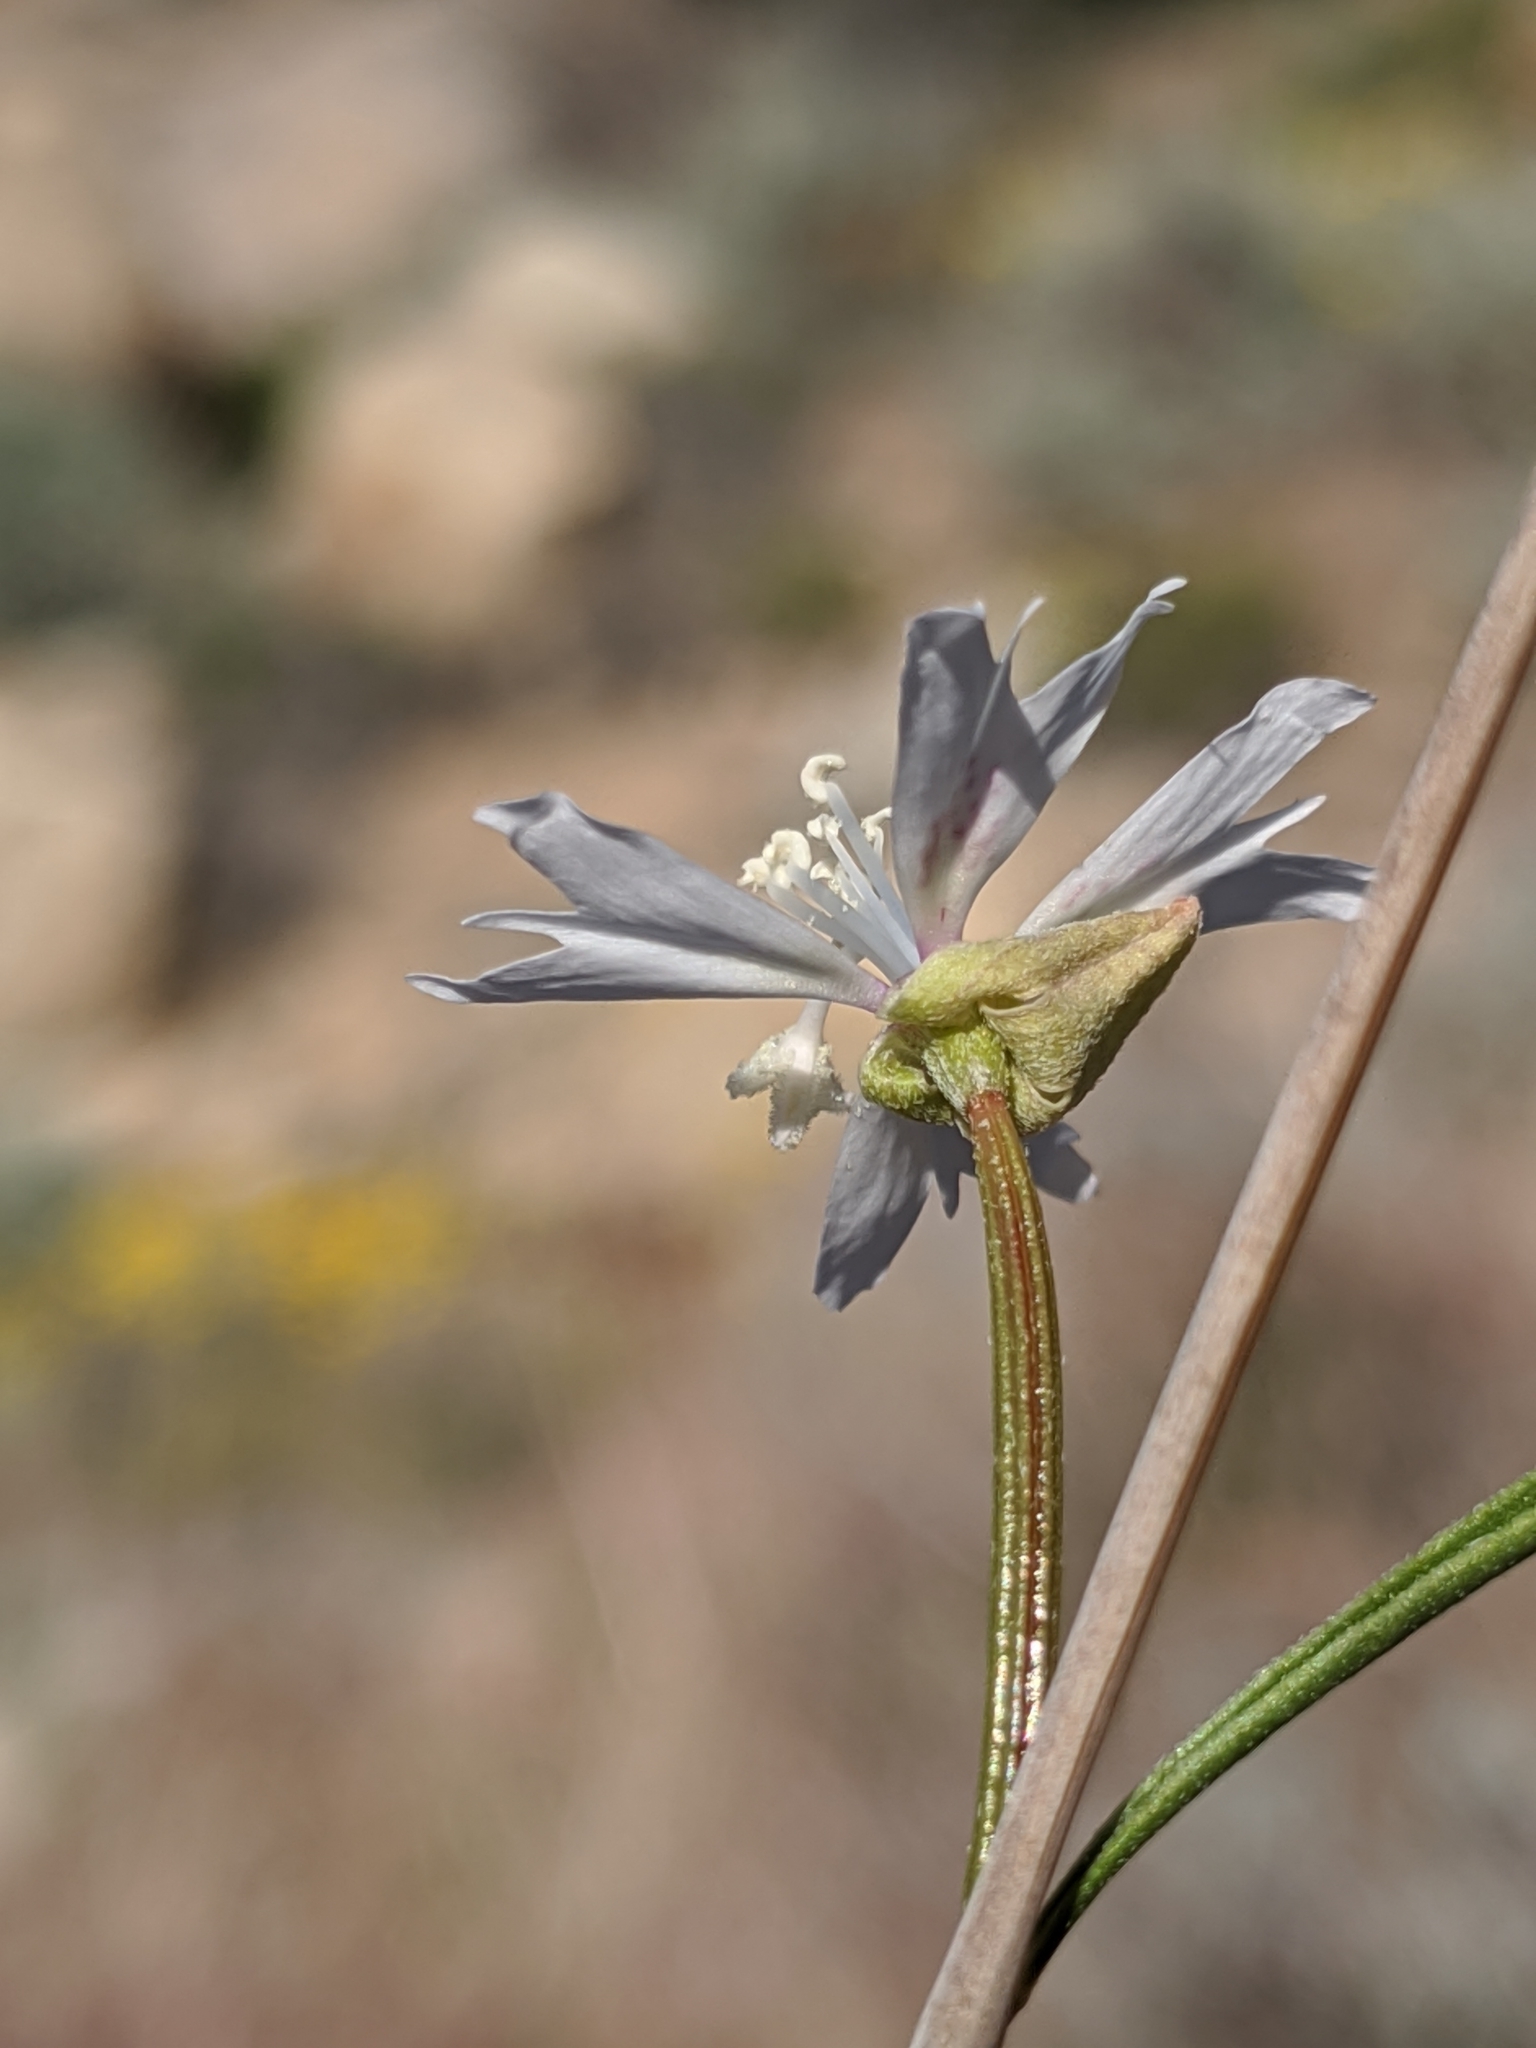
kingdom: Plantae
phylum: Tracheophyta
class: Magnoliopsida
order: Myrtales
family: Onagraceae
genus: Clarkia
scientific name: Clarkia xantiana
